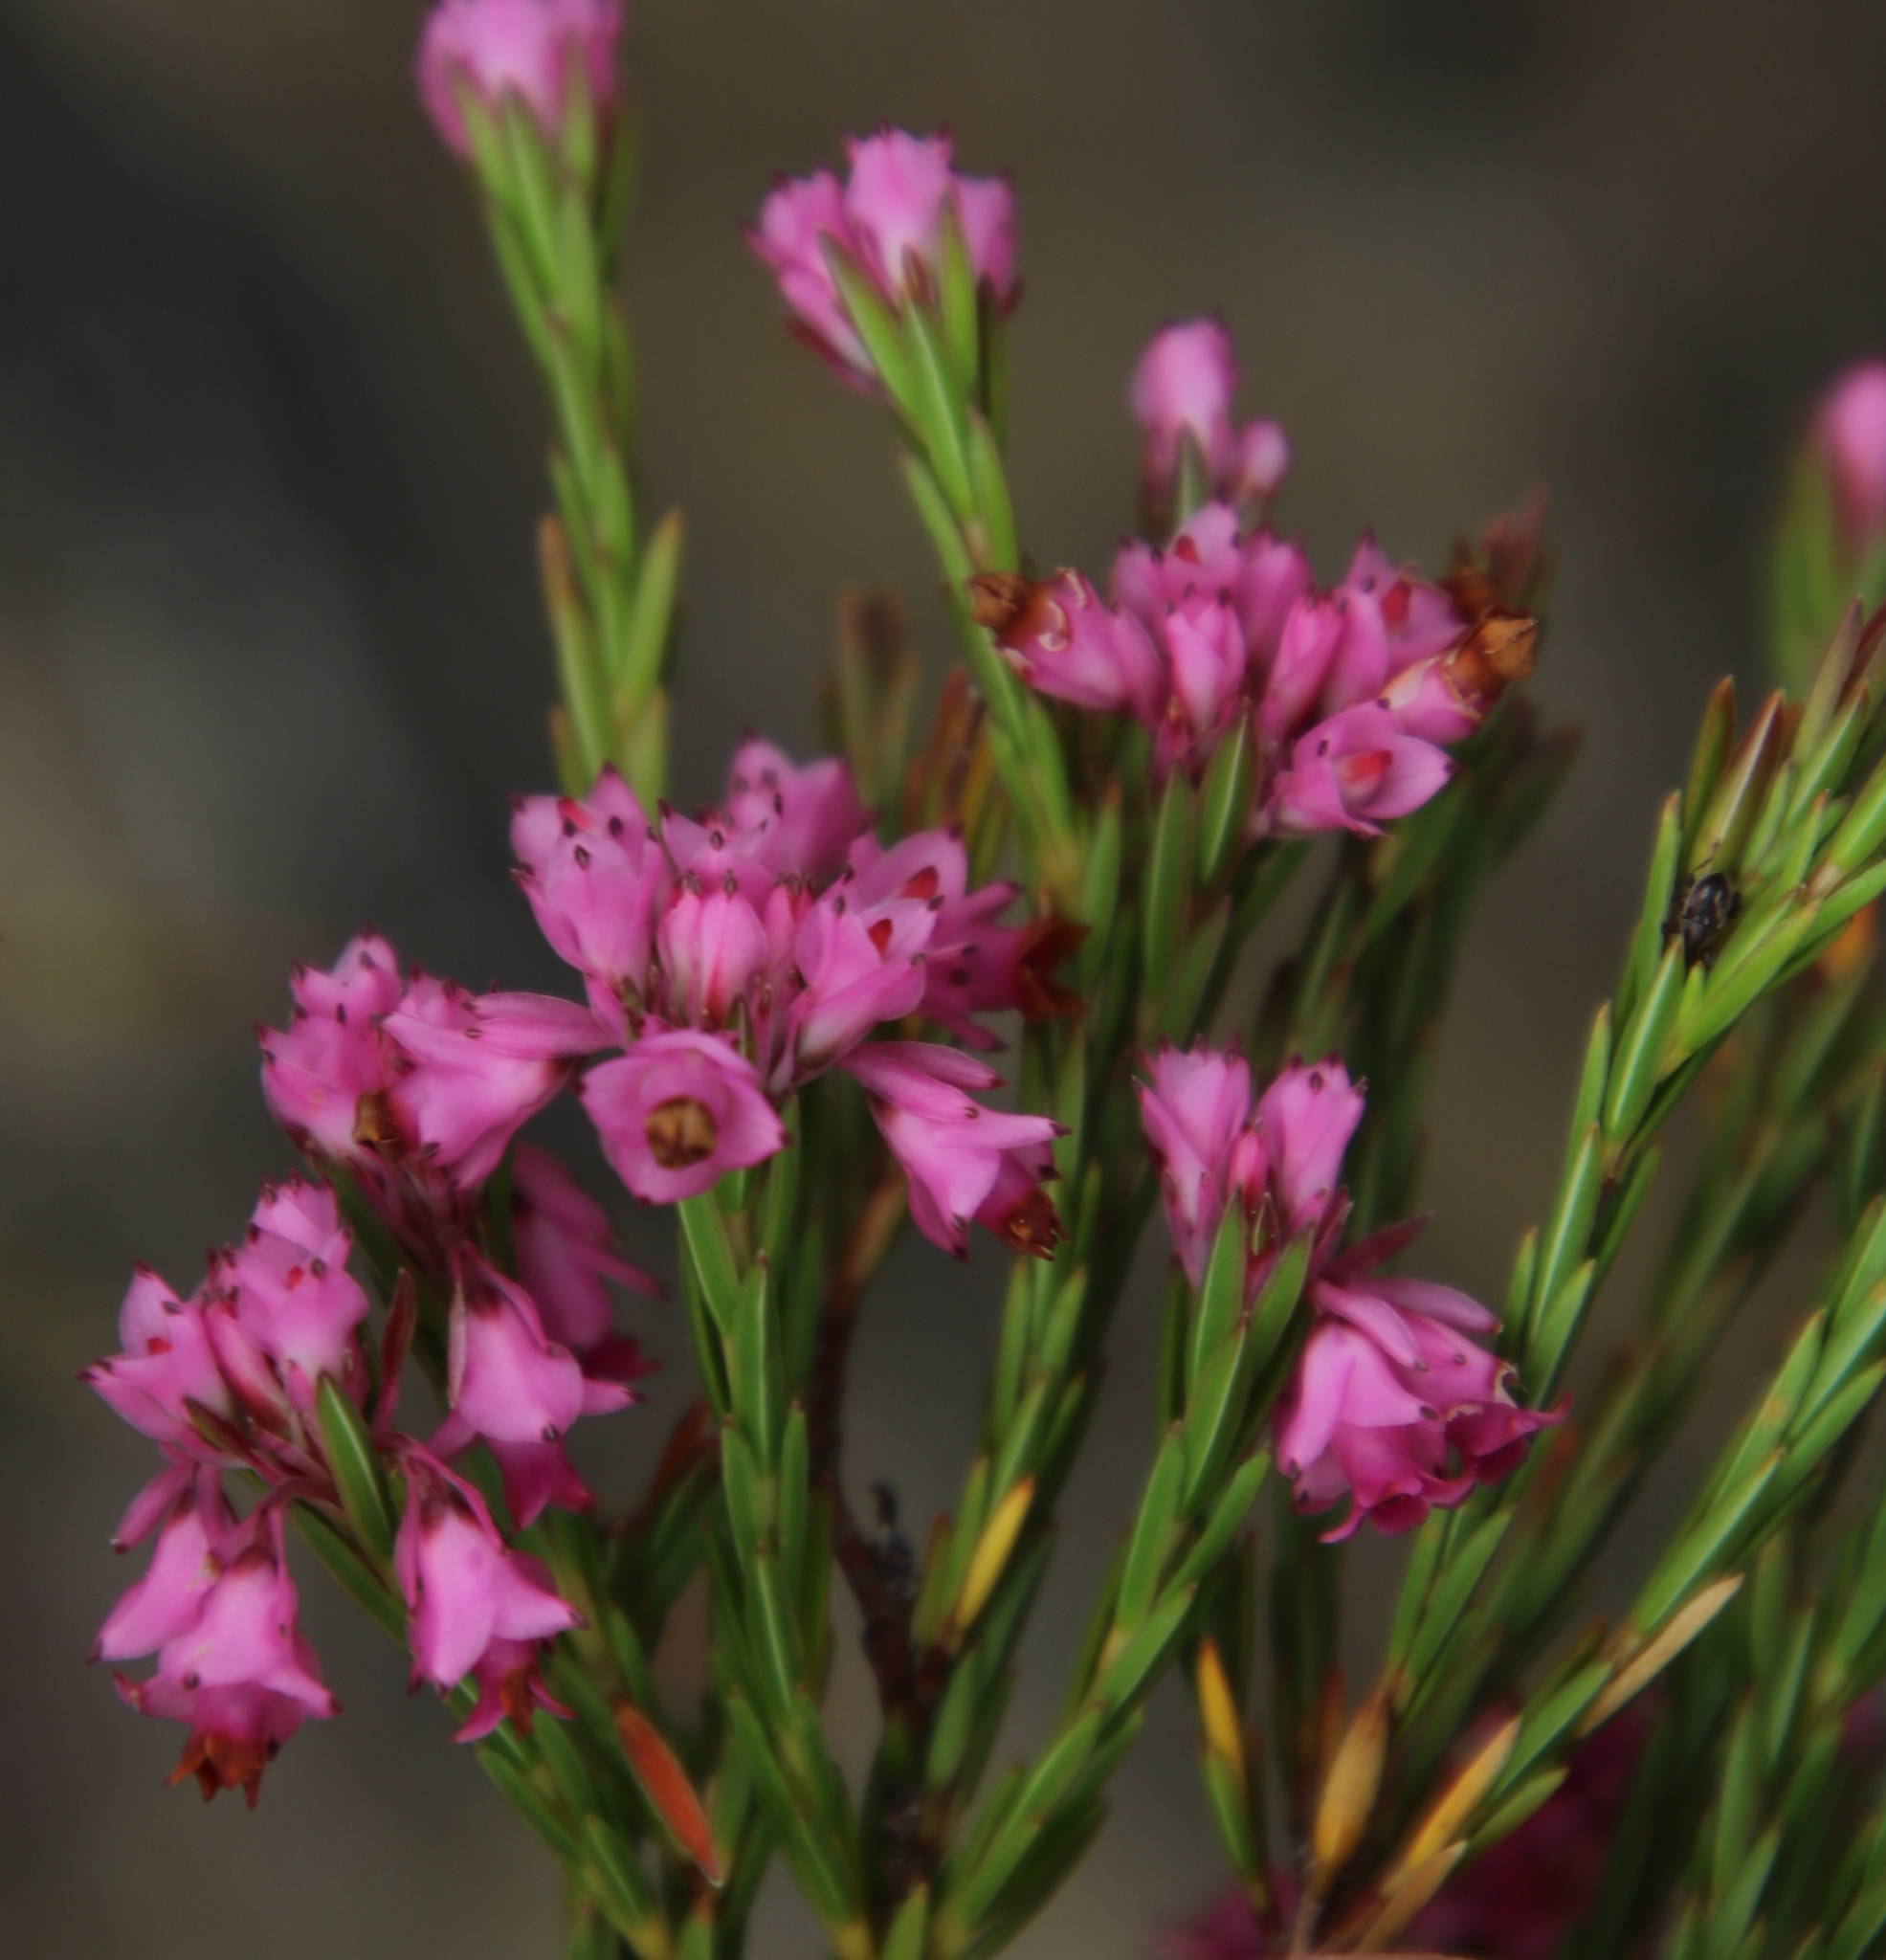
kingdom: Plantae
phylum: Tracheophyta
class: Magnoliopsida
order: Ericales
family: Ericaceae
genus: Erica
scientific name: Erica corifolia
